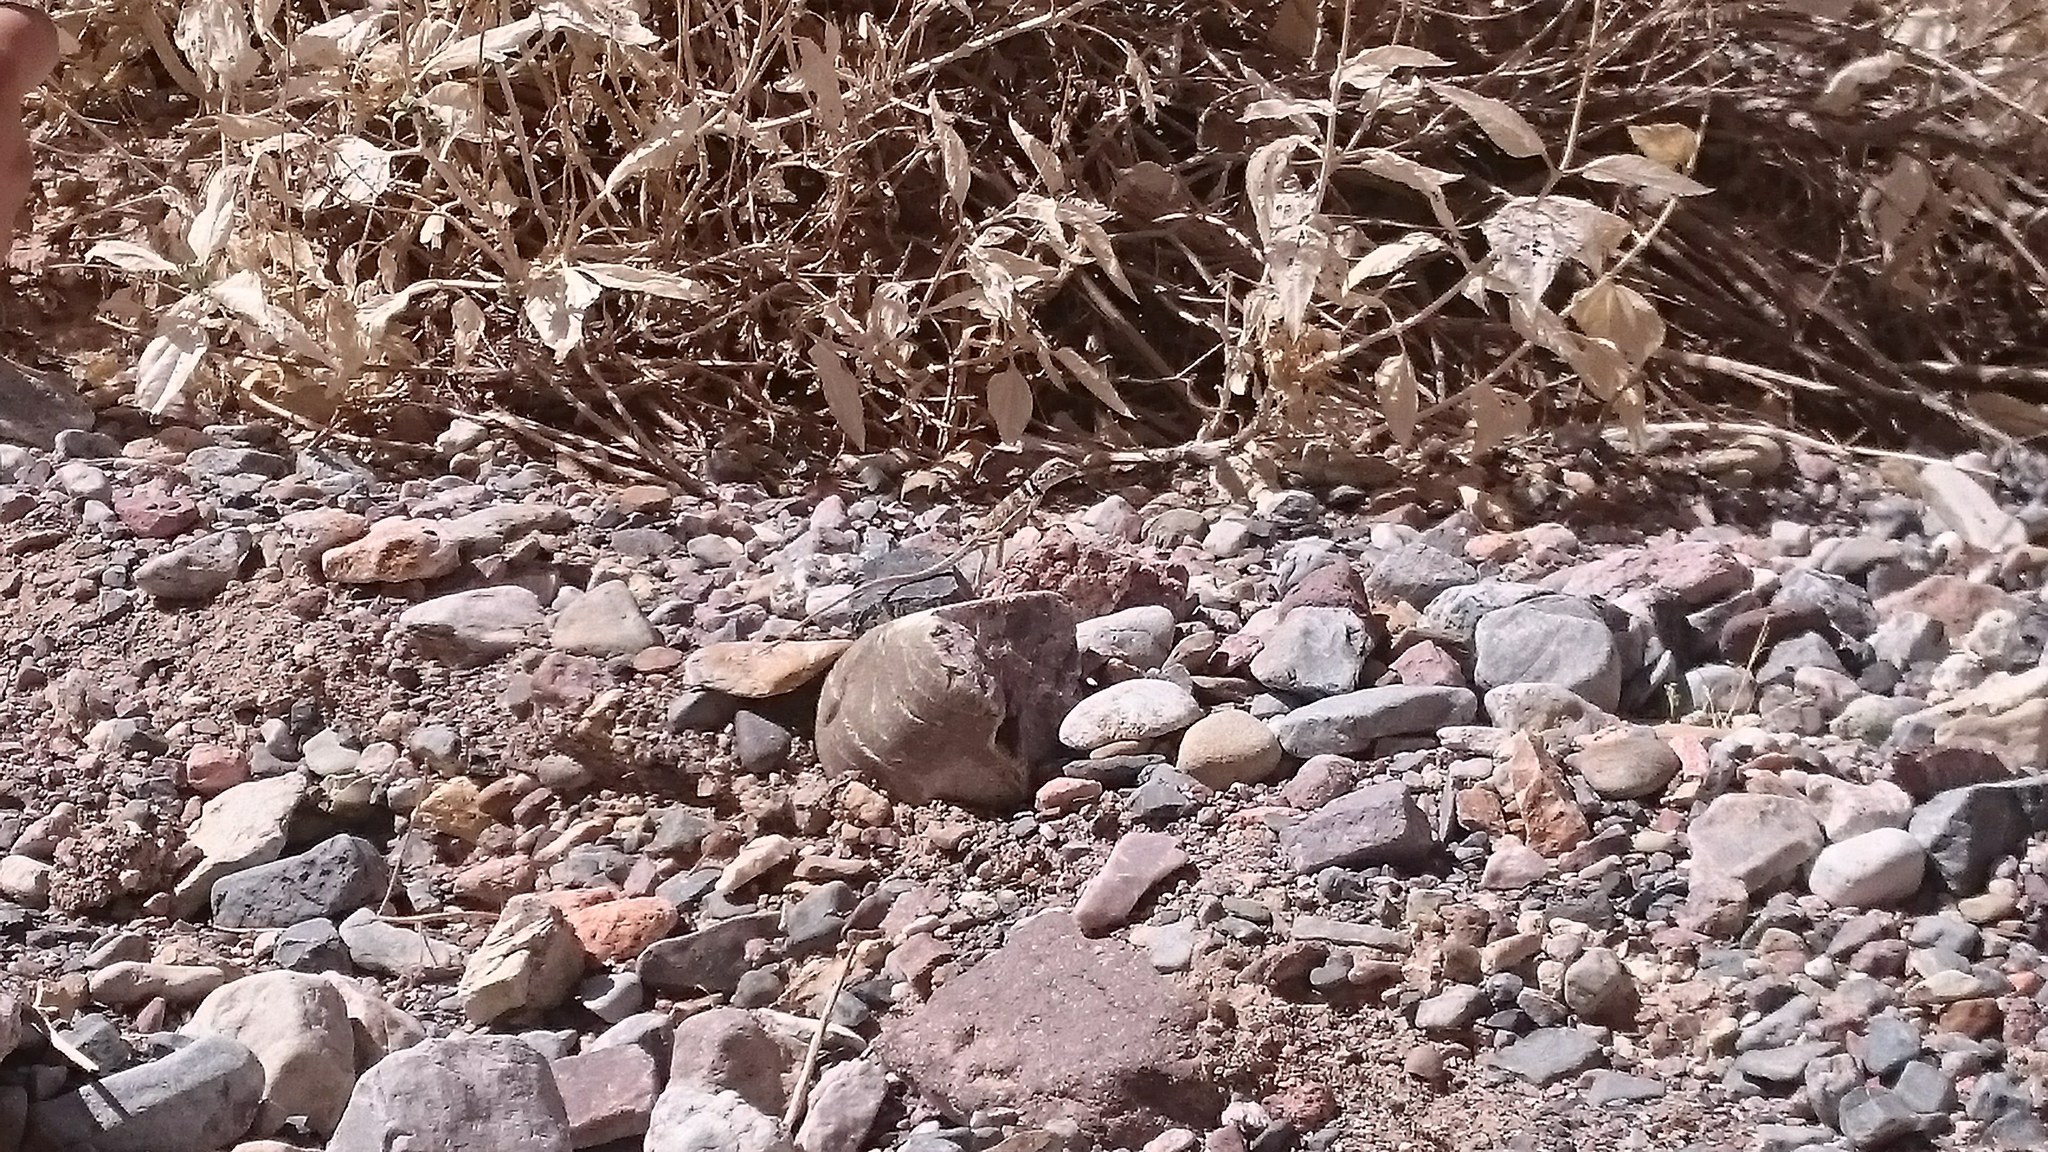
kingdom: Animalia
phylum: Chordata
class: Squamata
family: Crotaphytidae
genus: Crotaphytus
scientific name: Crotaphytus bicinctores
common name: Mojave black-collared lizard
